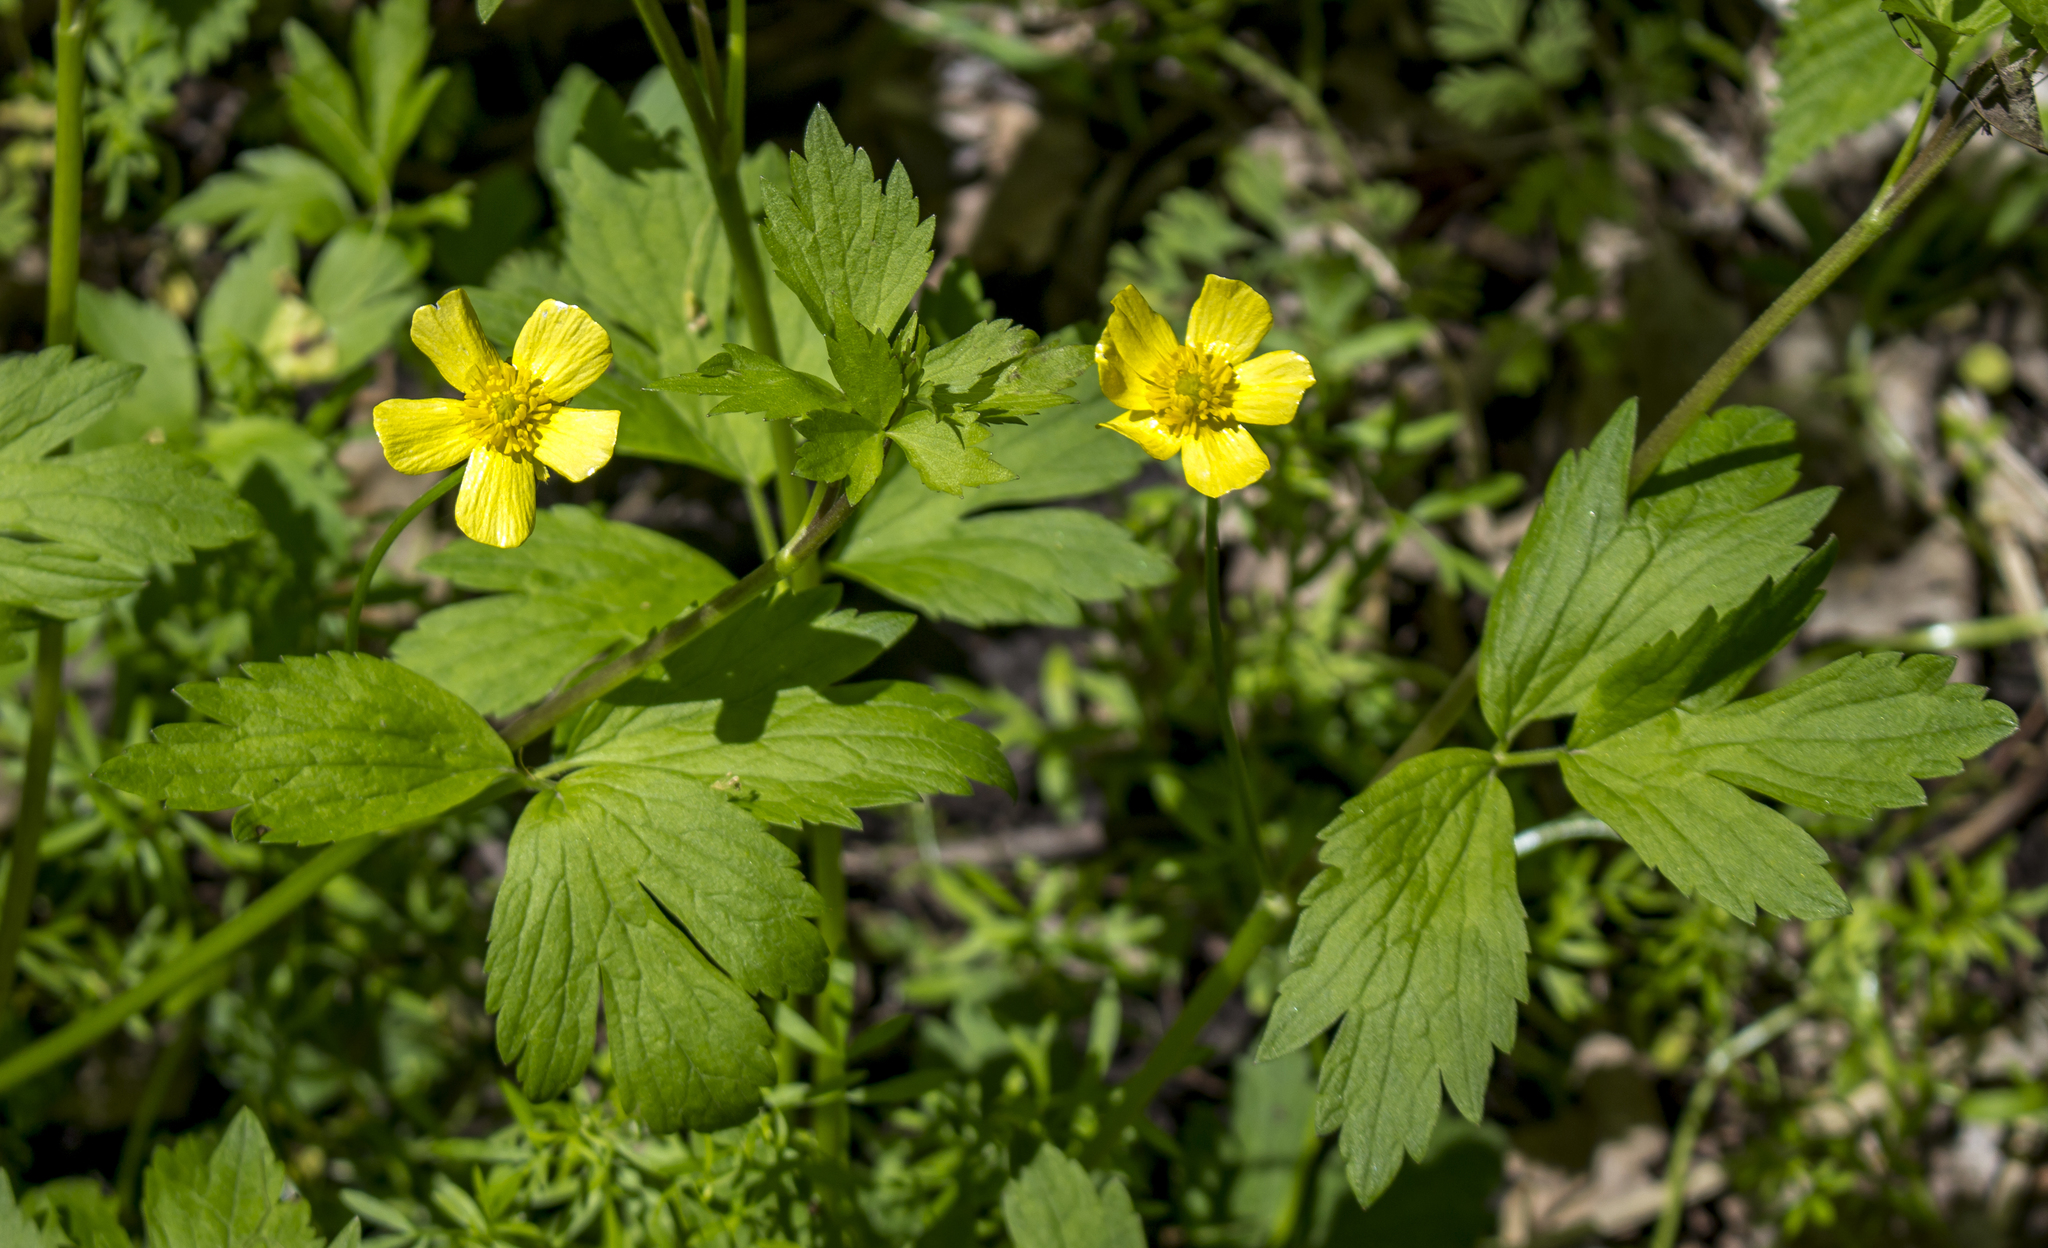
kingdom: Plantae
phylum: Tracheophyta
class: Magnoliopsida
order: Ranunculales
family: Ranunculaceae
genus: Ranunculus
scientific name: Ranunculus hispidus
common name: Bristly buttercup
